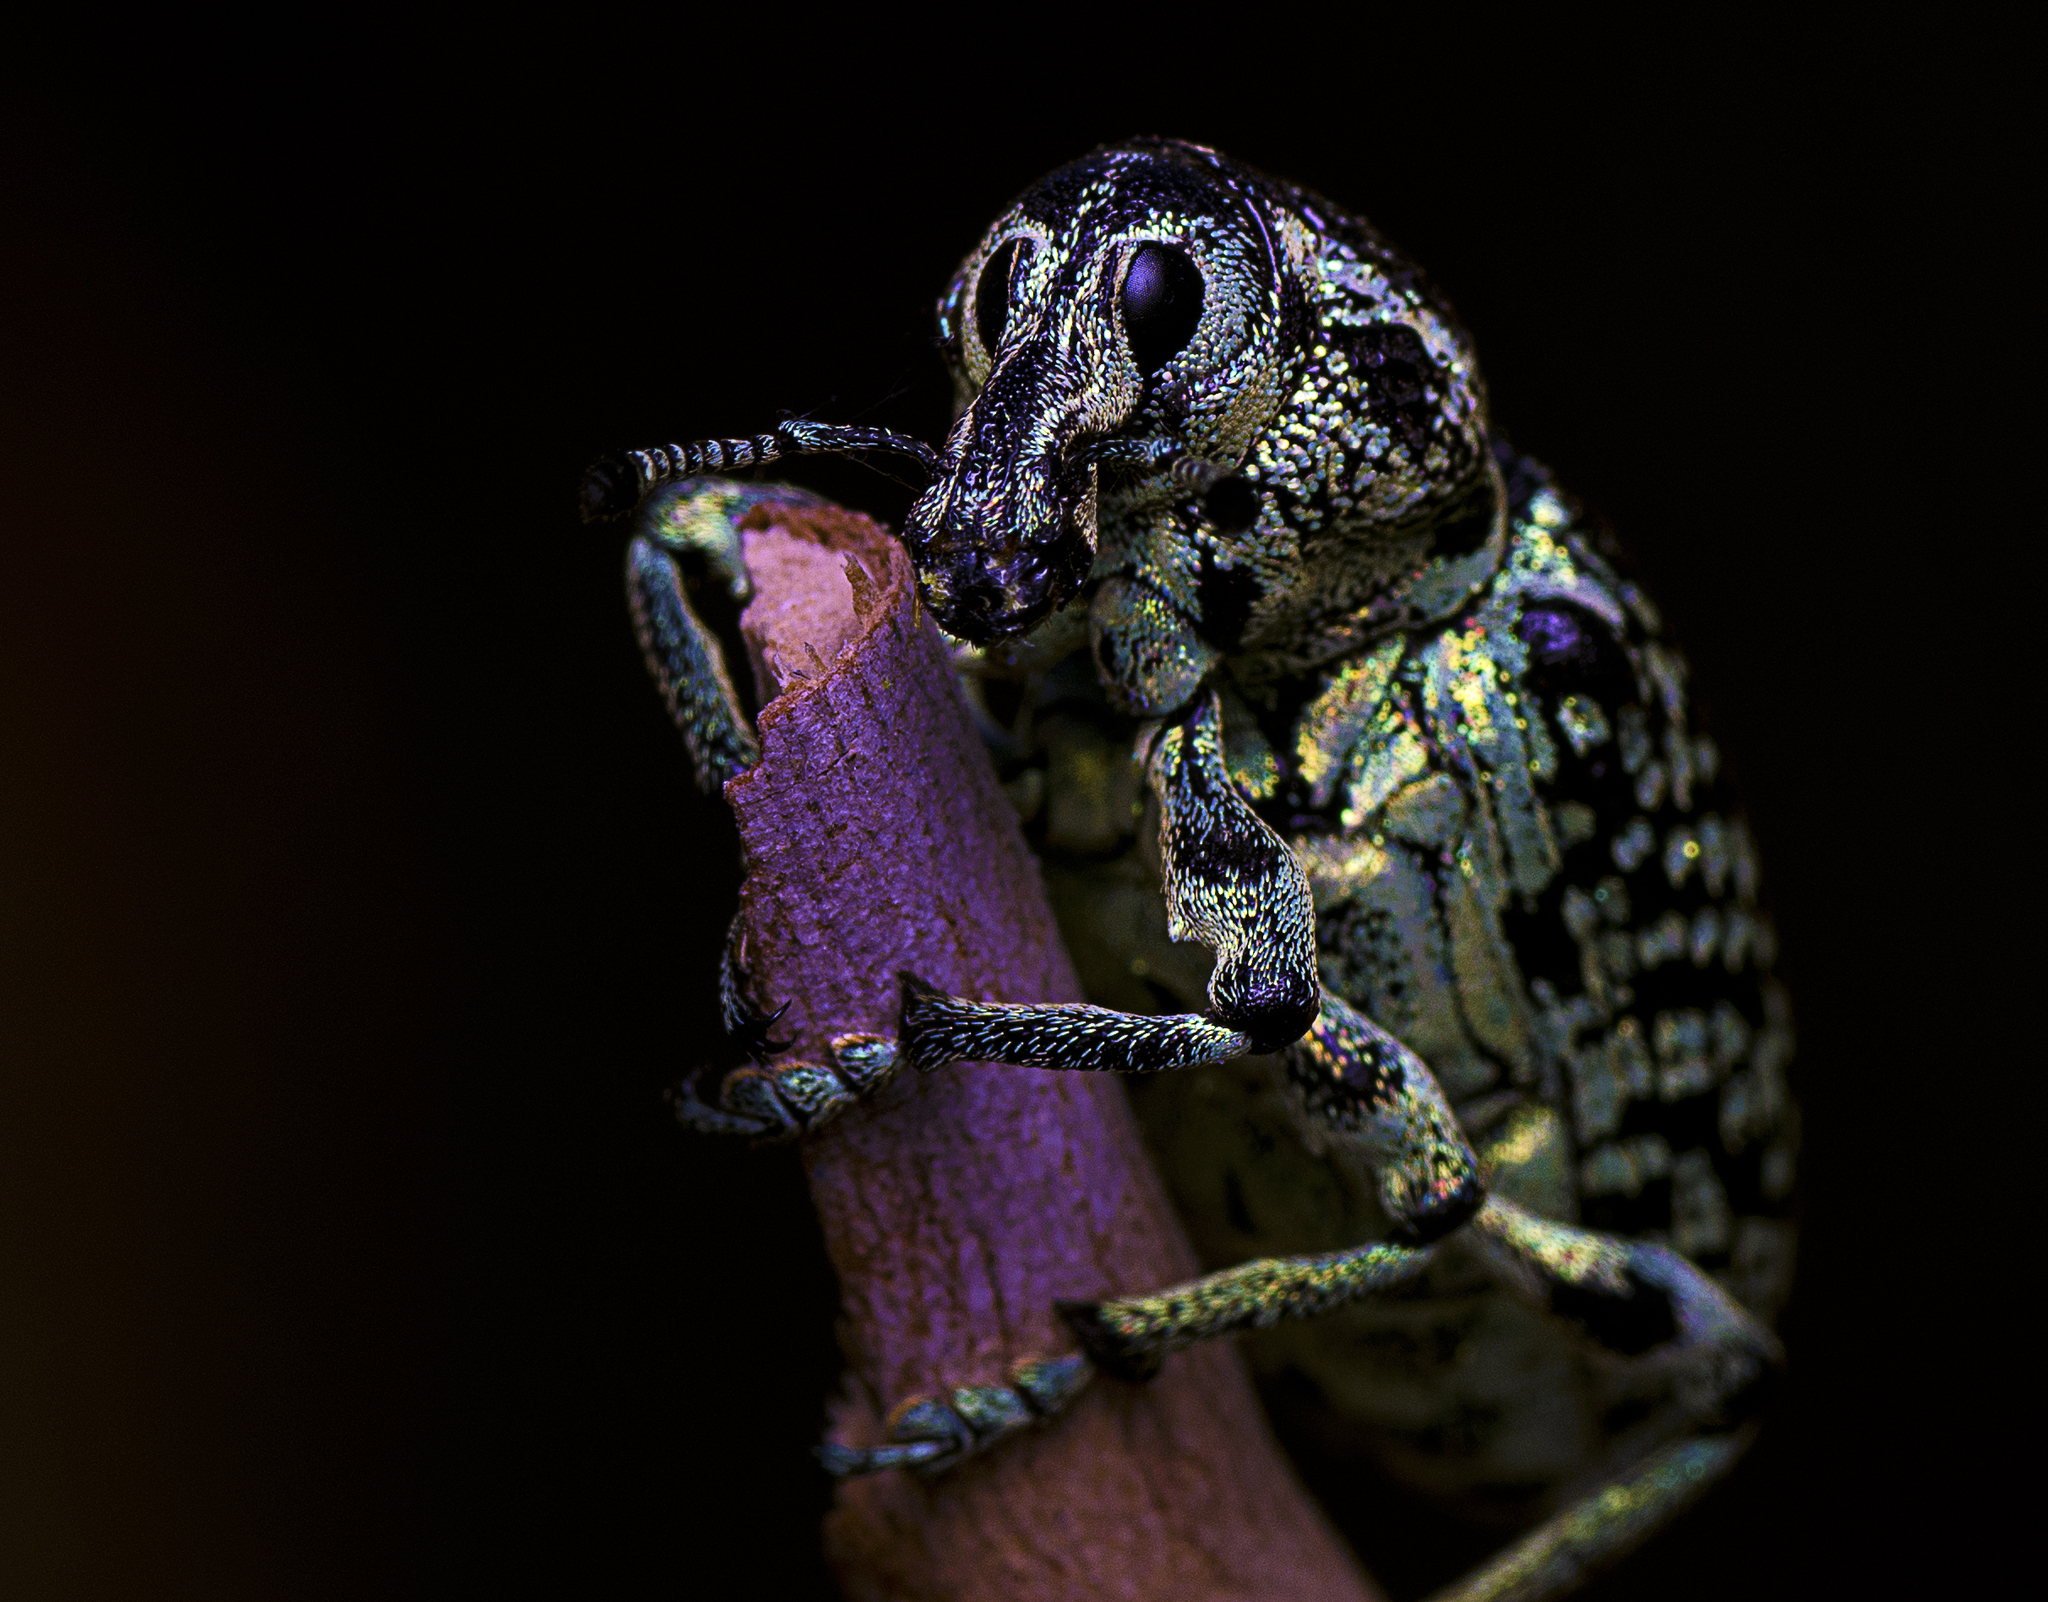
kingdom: Animalia
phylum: Arthropoda
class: Insecta
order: Coleoptera
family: Curculionidae
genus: Chrysolopus
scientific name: Chrysolopus spectabilis
